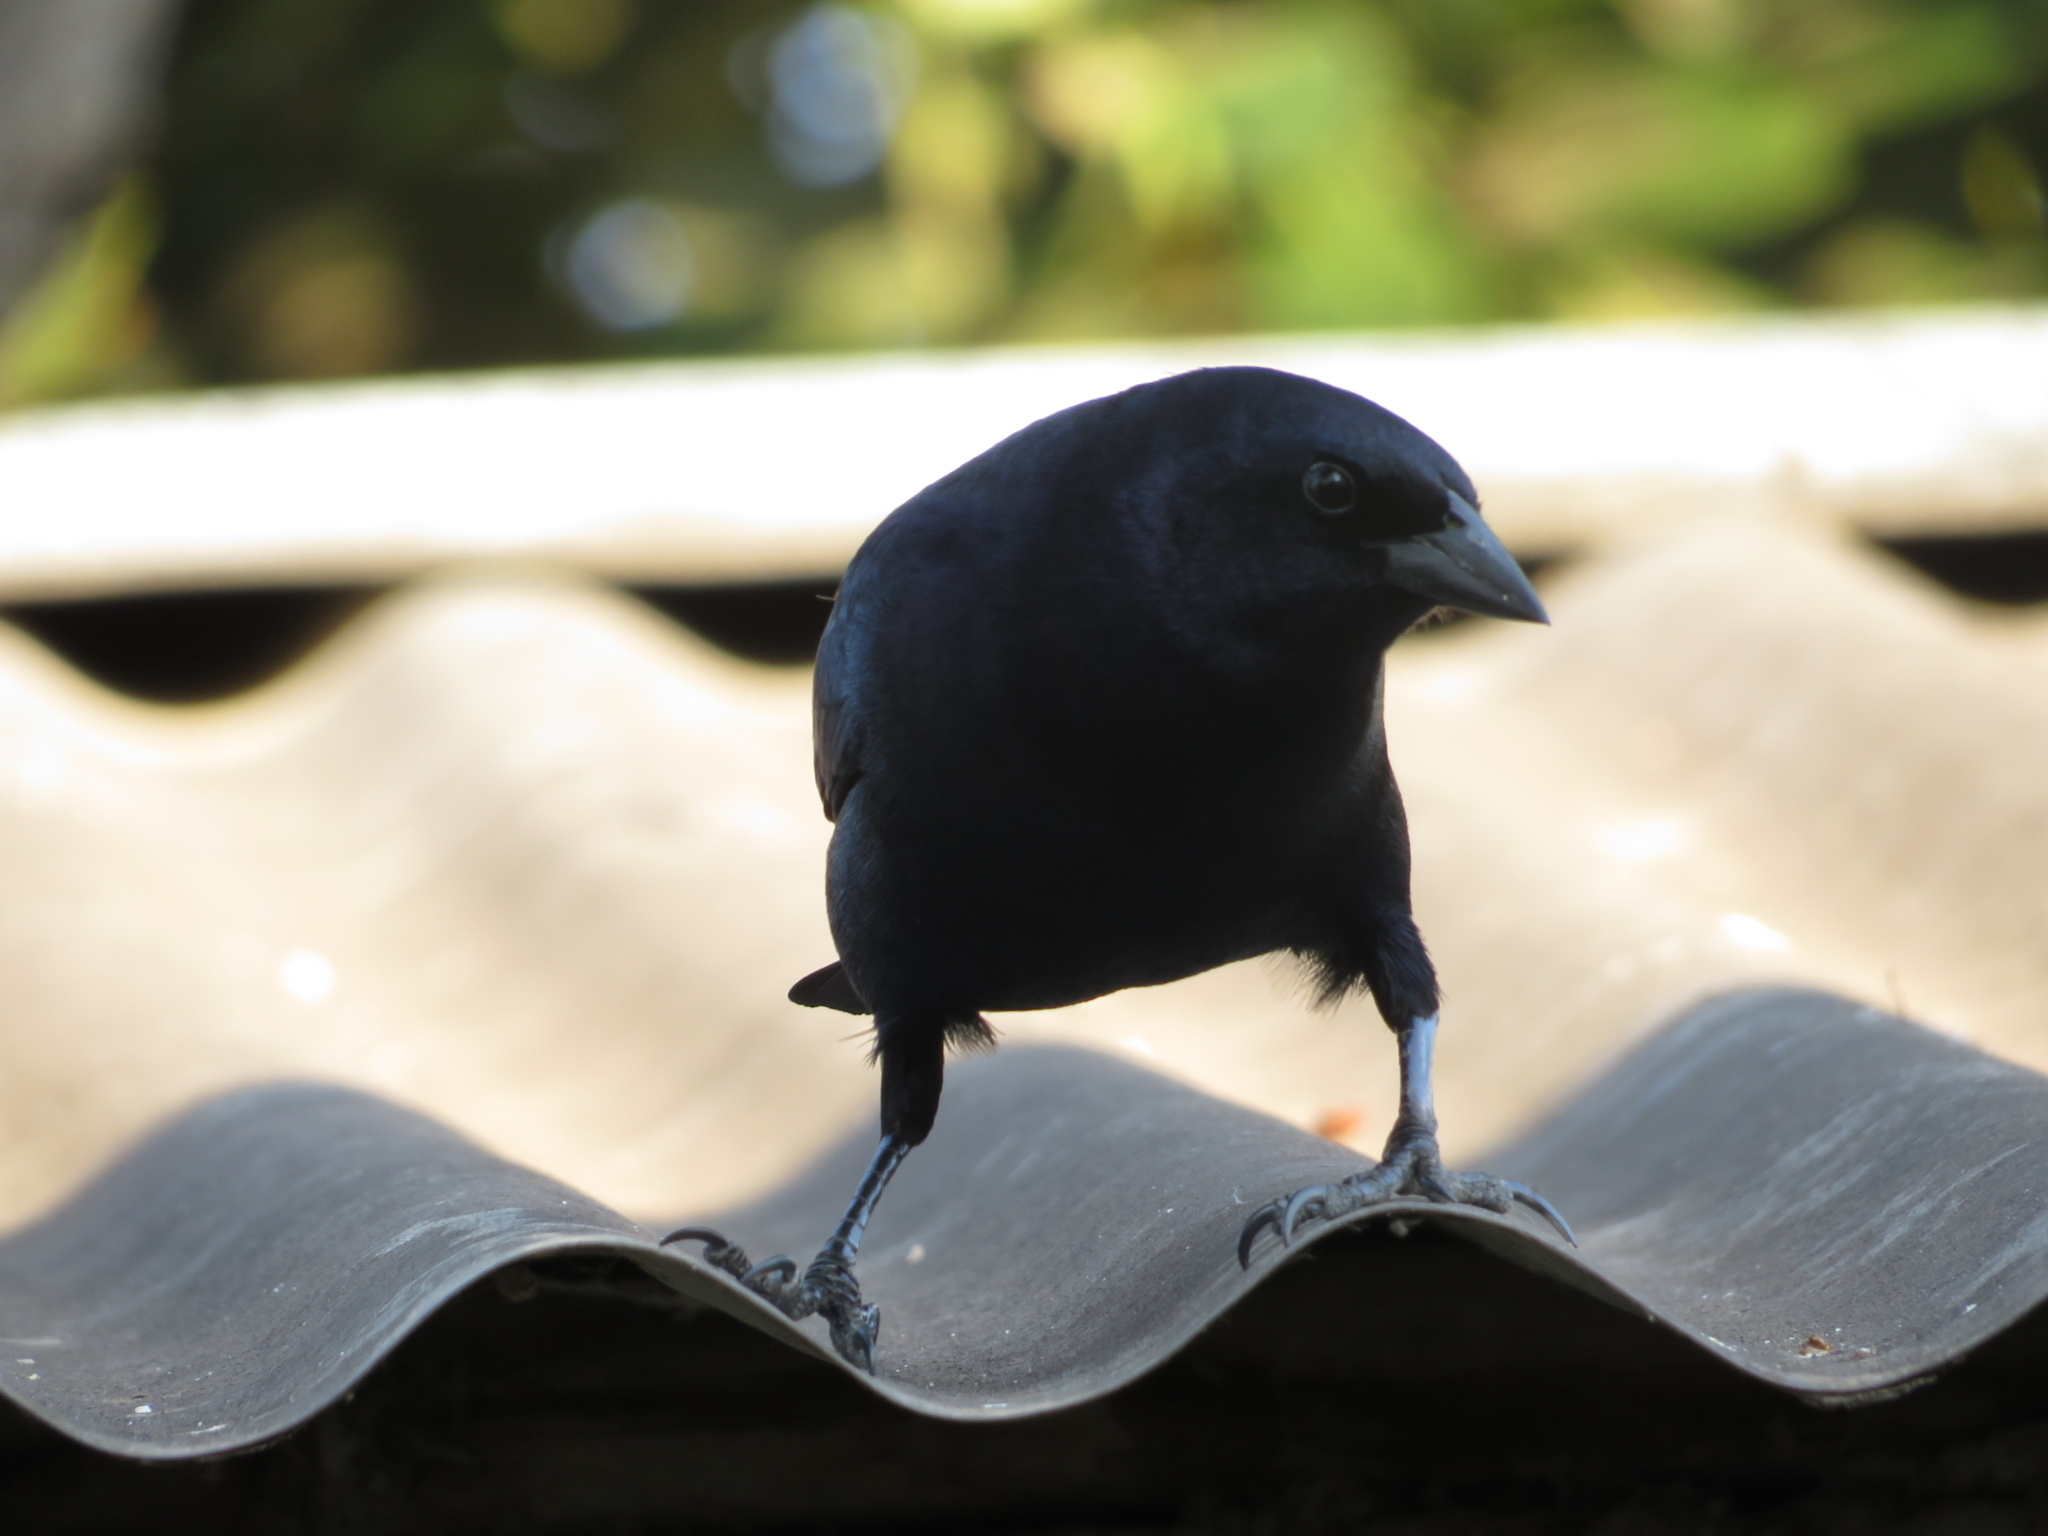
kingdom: Animalia
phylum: Chordata
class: Aves
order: Passeriformes
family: Icteridae
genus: Molothrus
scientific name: Molothrus bonariensis
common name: Shiny cowbird
